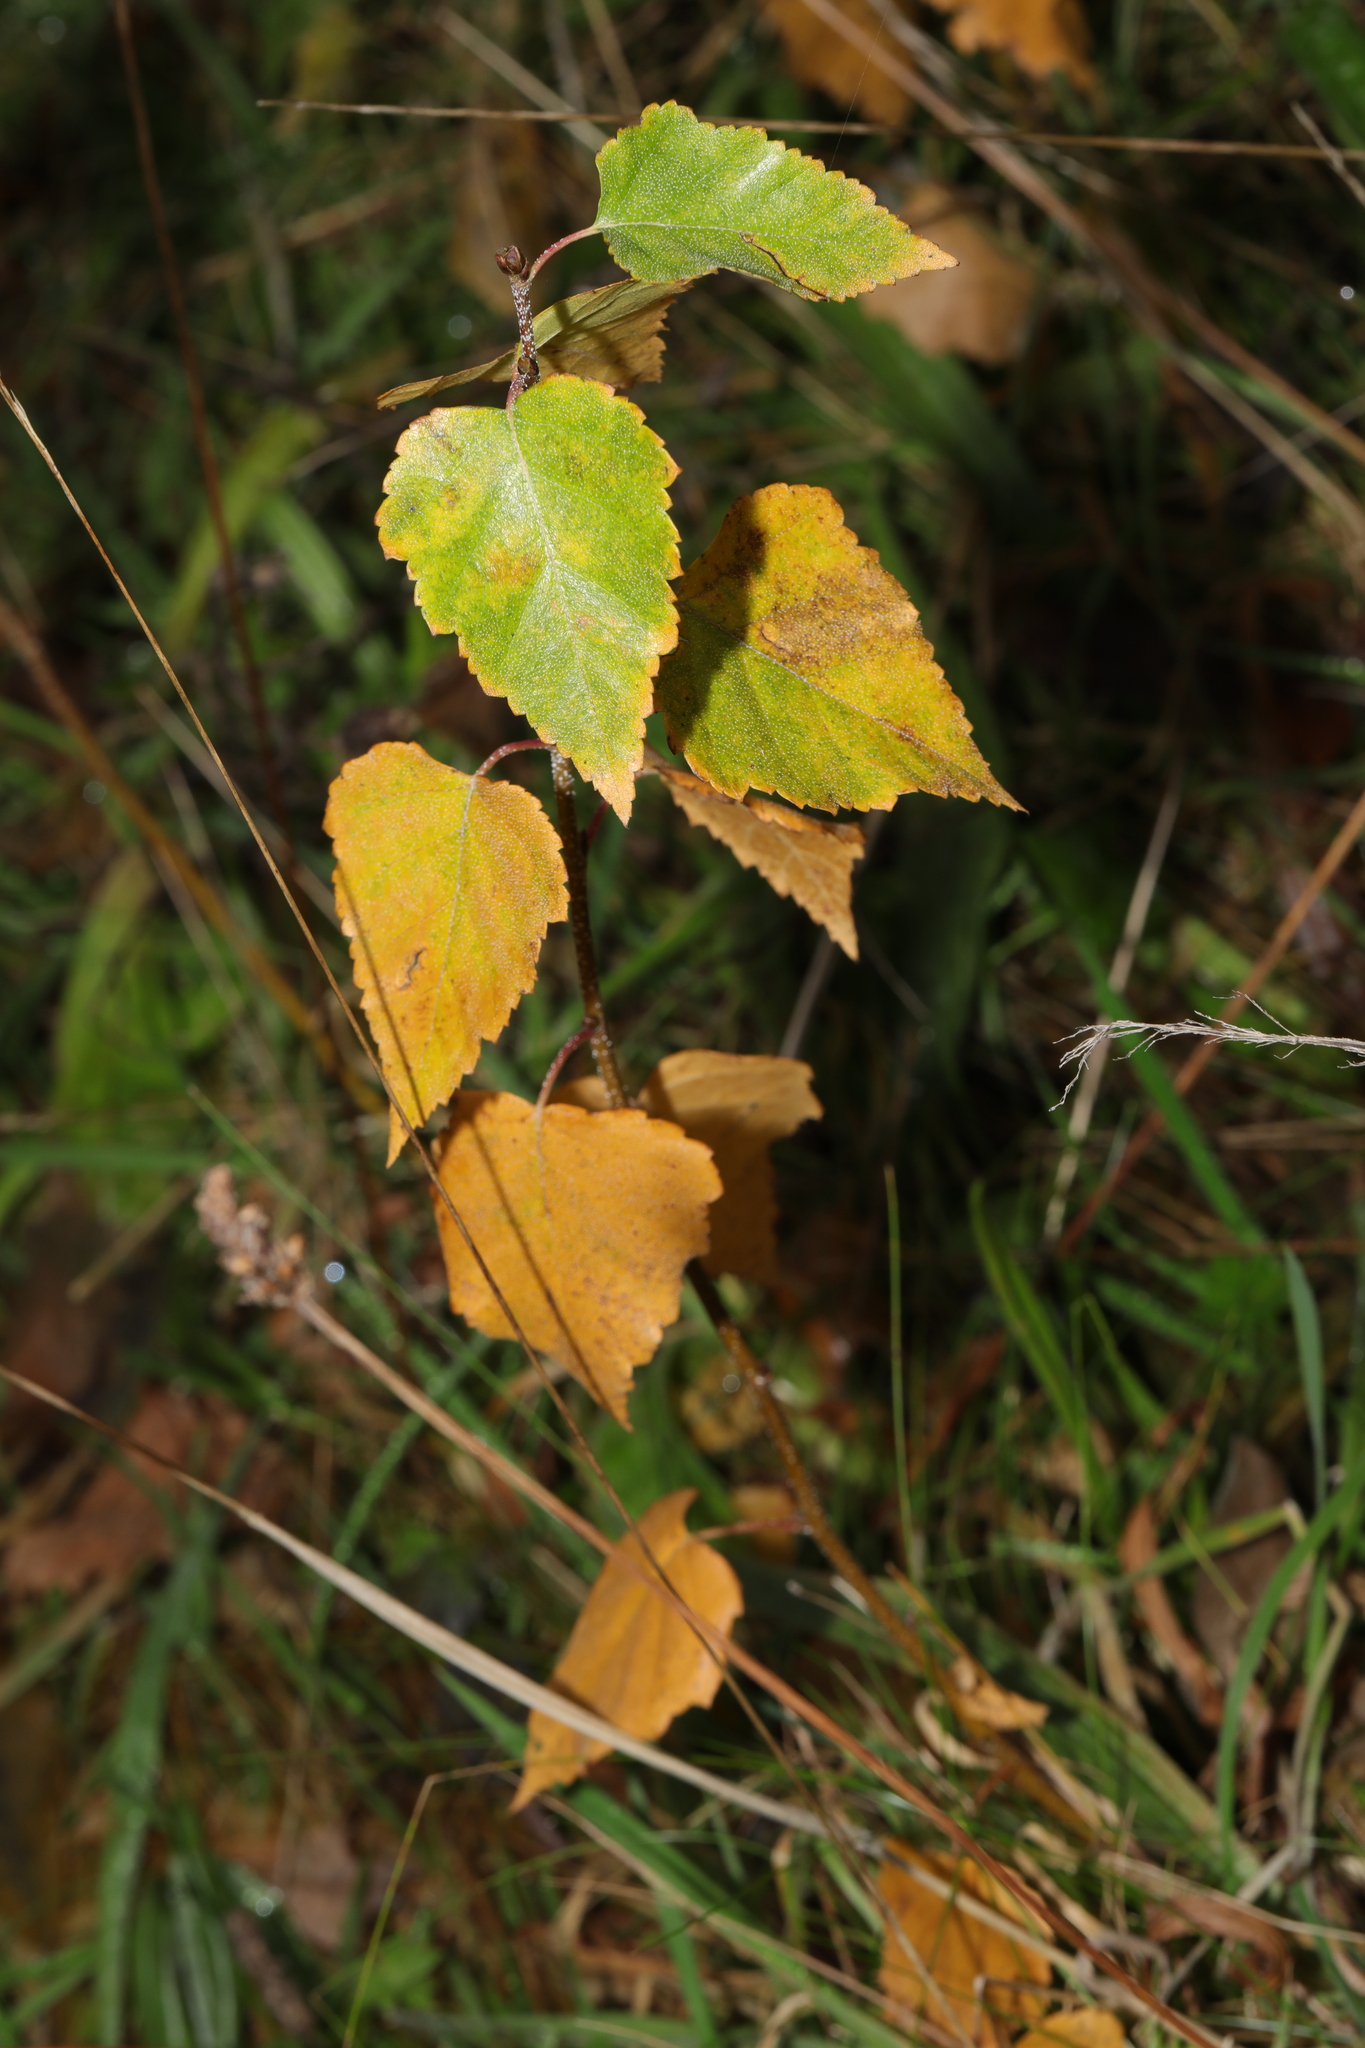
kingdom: Plantae
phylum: Tracheophyta
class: Magnoliopsida
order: Fagales
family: Betulaceae
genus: Betula
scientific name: Betula pendula
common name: Silver birch
